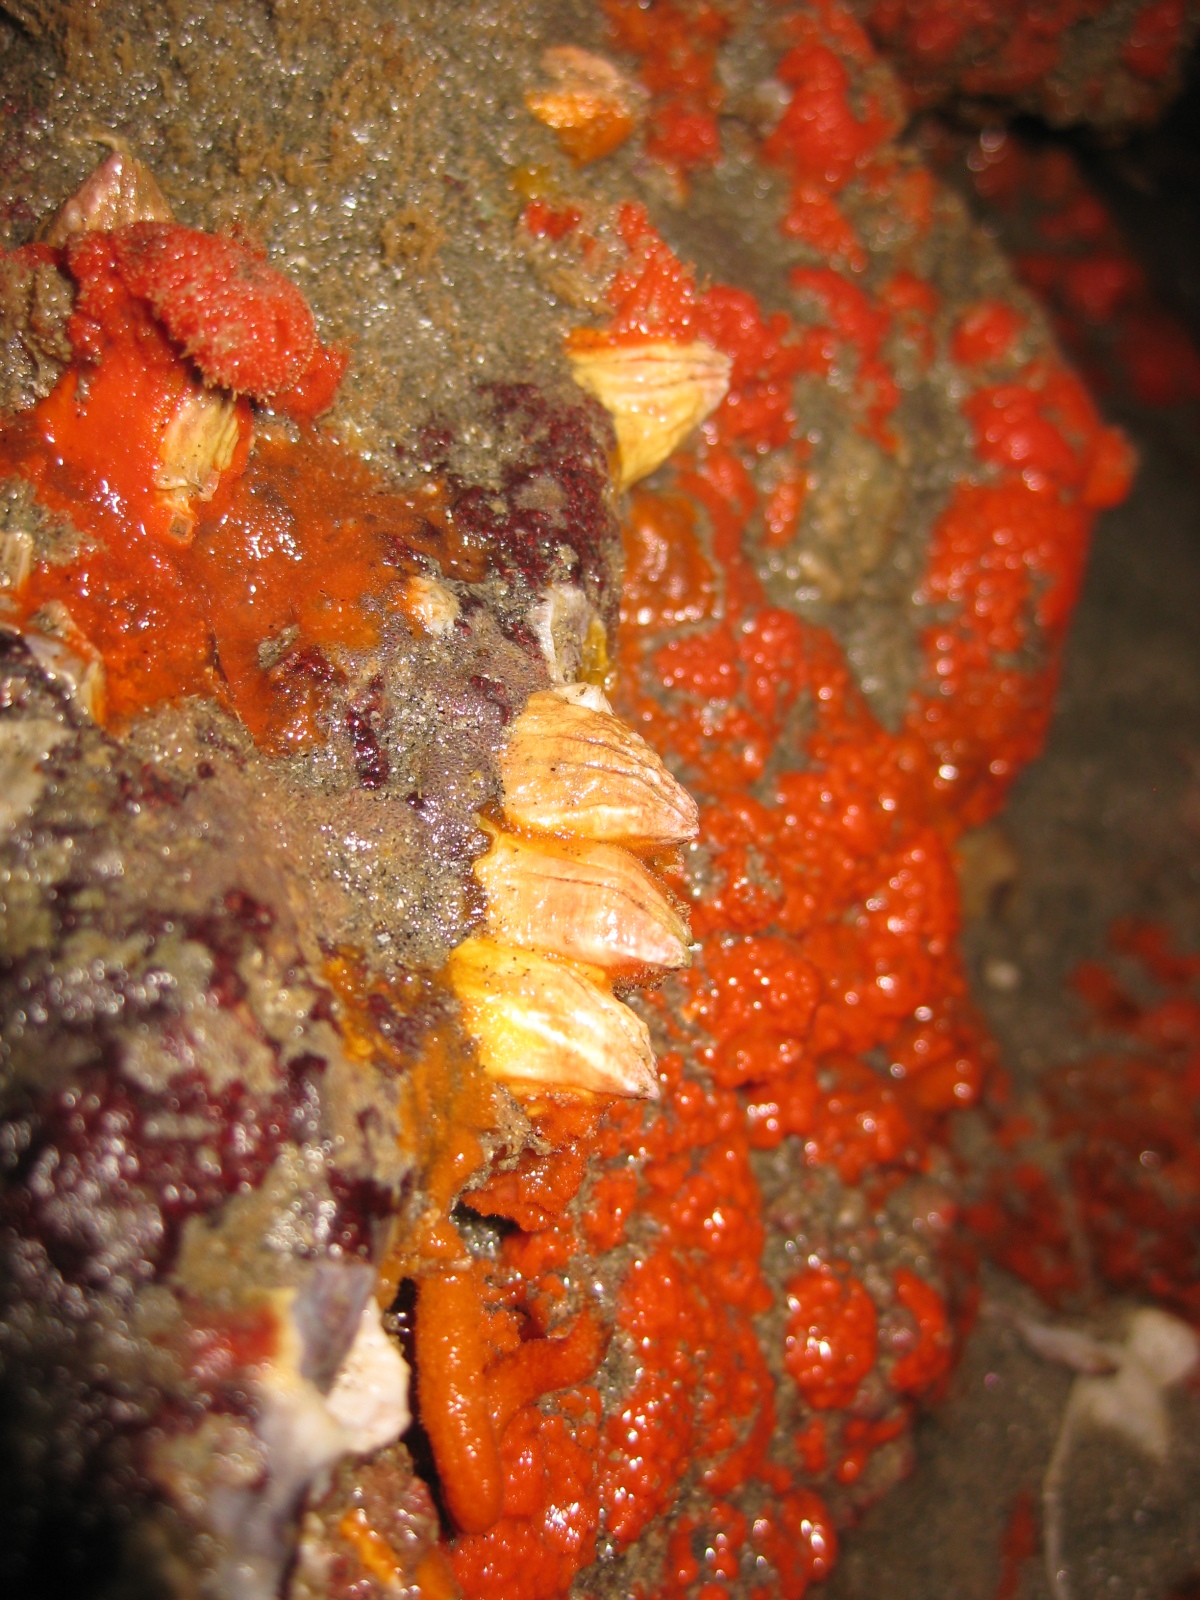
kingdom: Animalia
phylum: Arthropoda
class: Maxillopoda
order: Sessilia
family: Balanidae
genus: Notobalanus
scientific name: Notobalanus vestitus
